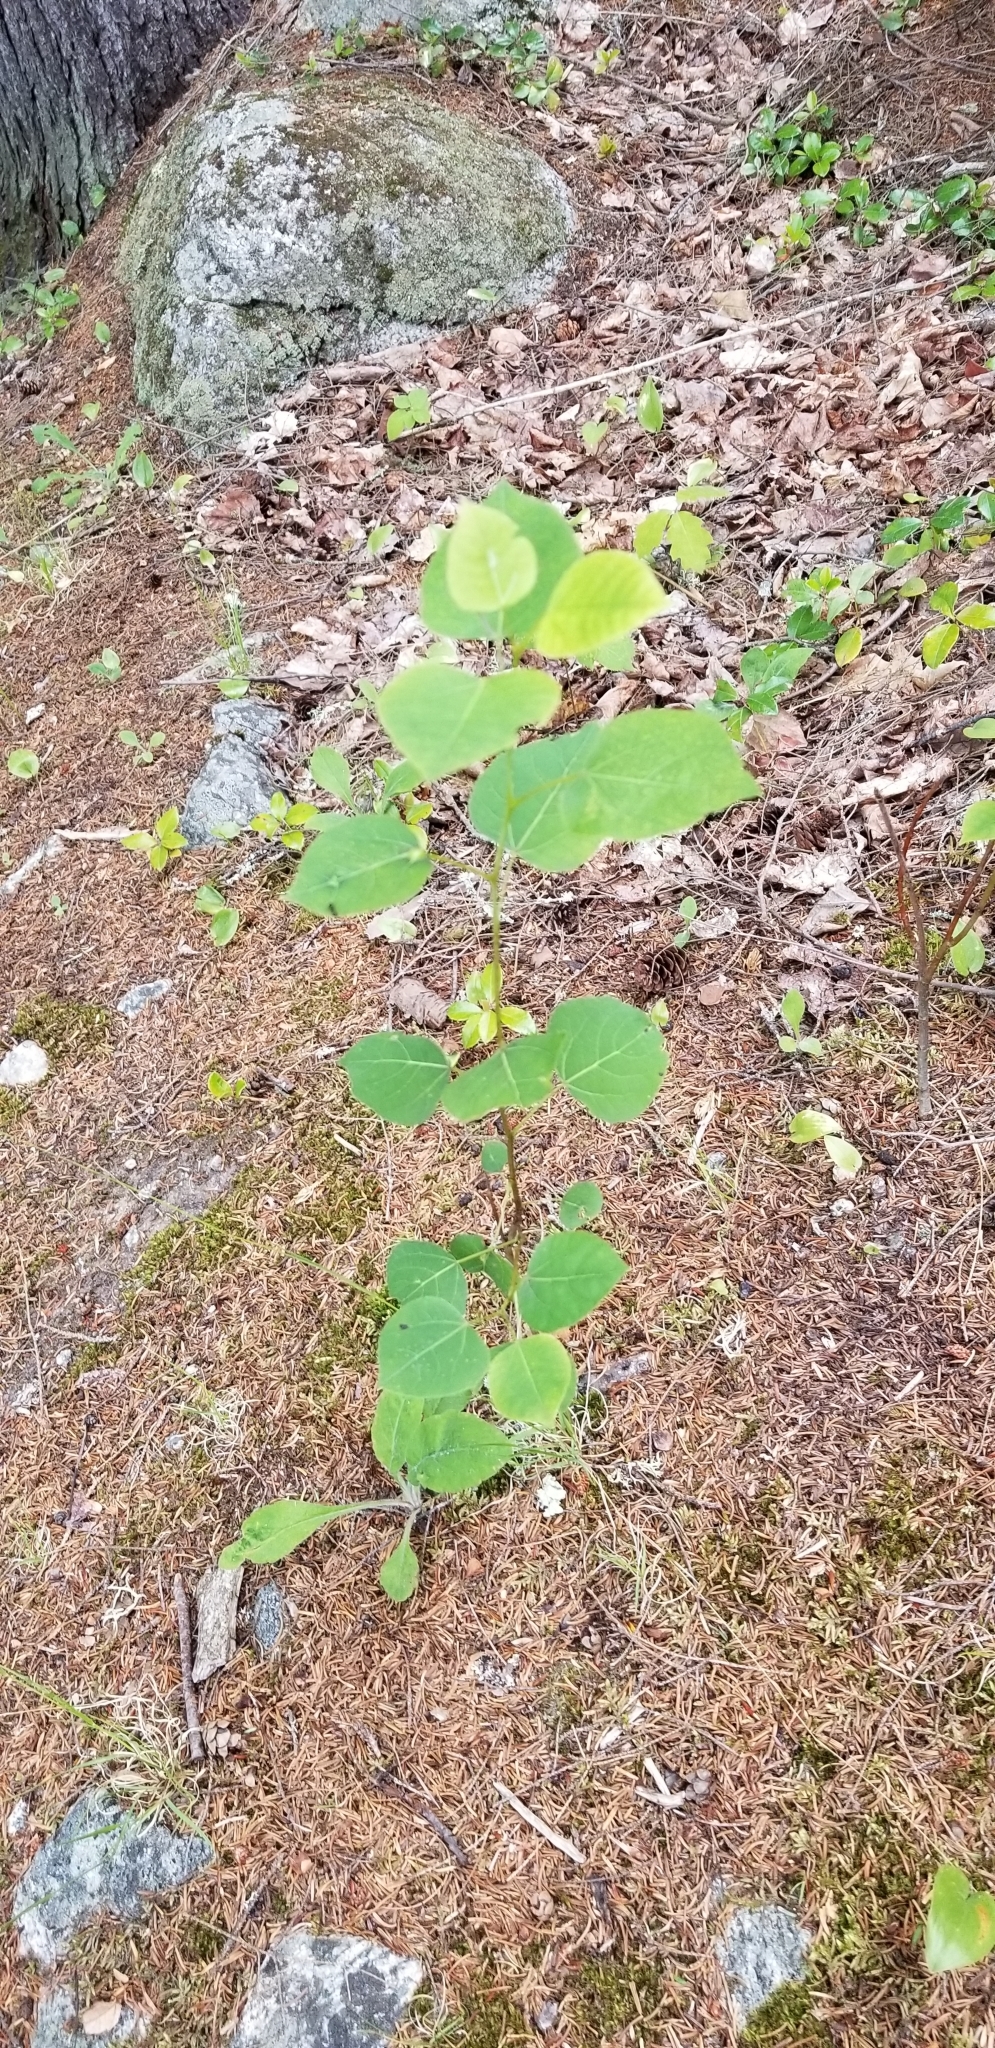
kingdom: Plantae
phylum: Tracheophyta
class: Magnoliopsida
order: Malpighiales
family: Salicaceae
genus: Populus
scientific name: Populus tremuloides
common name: Quaking aspen
